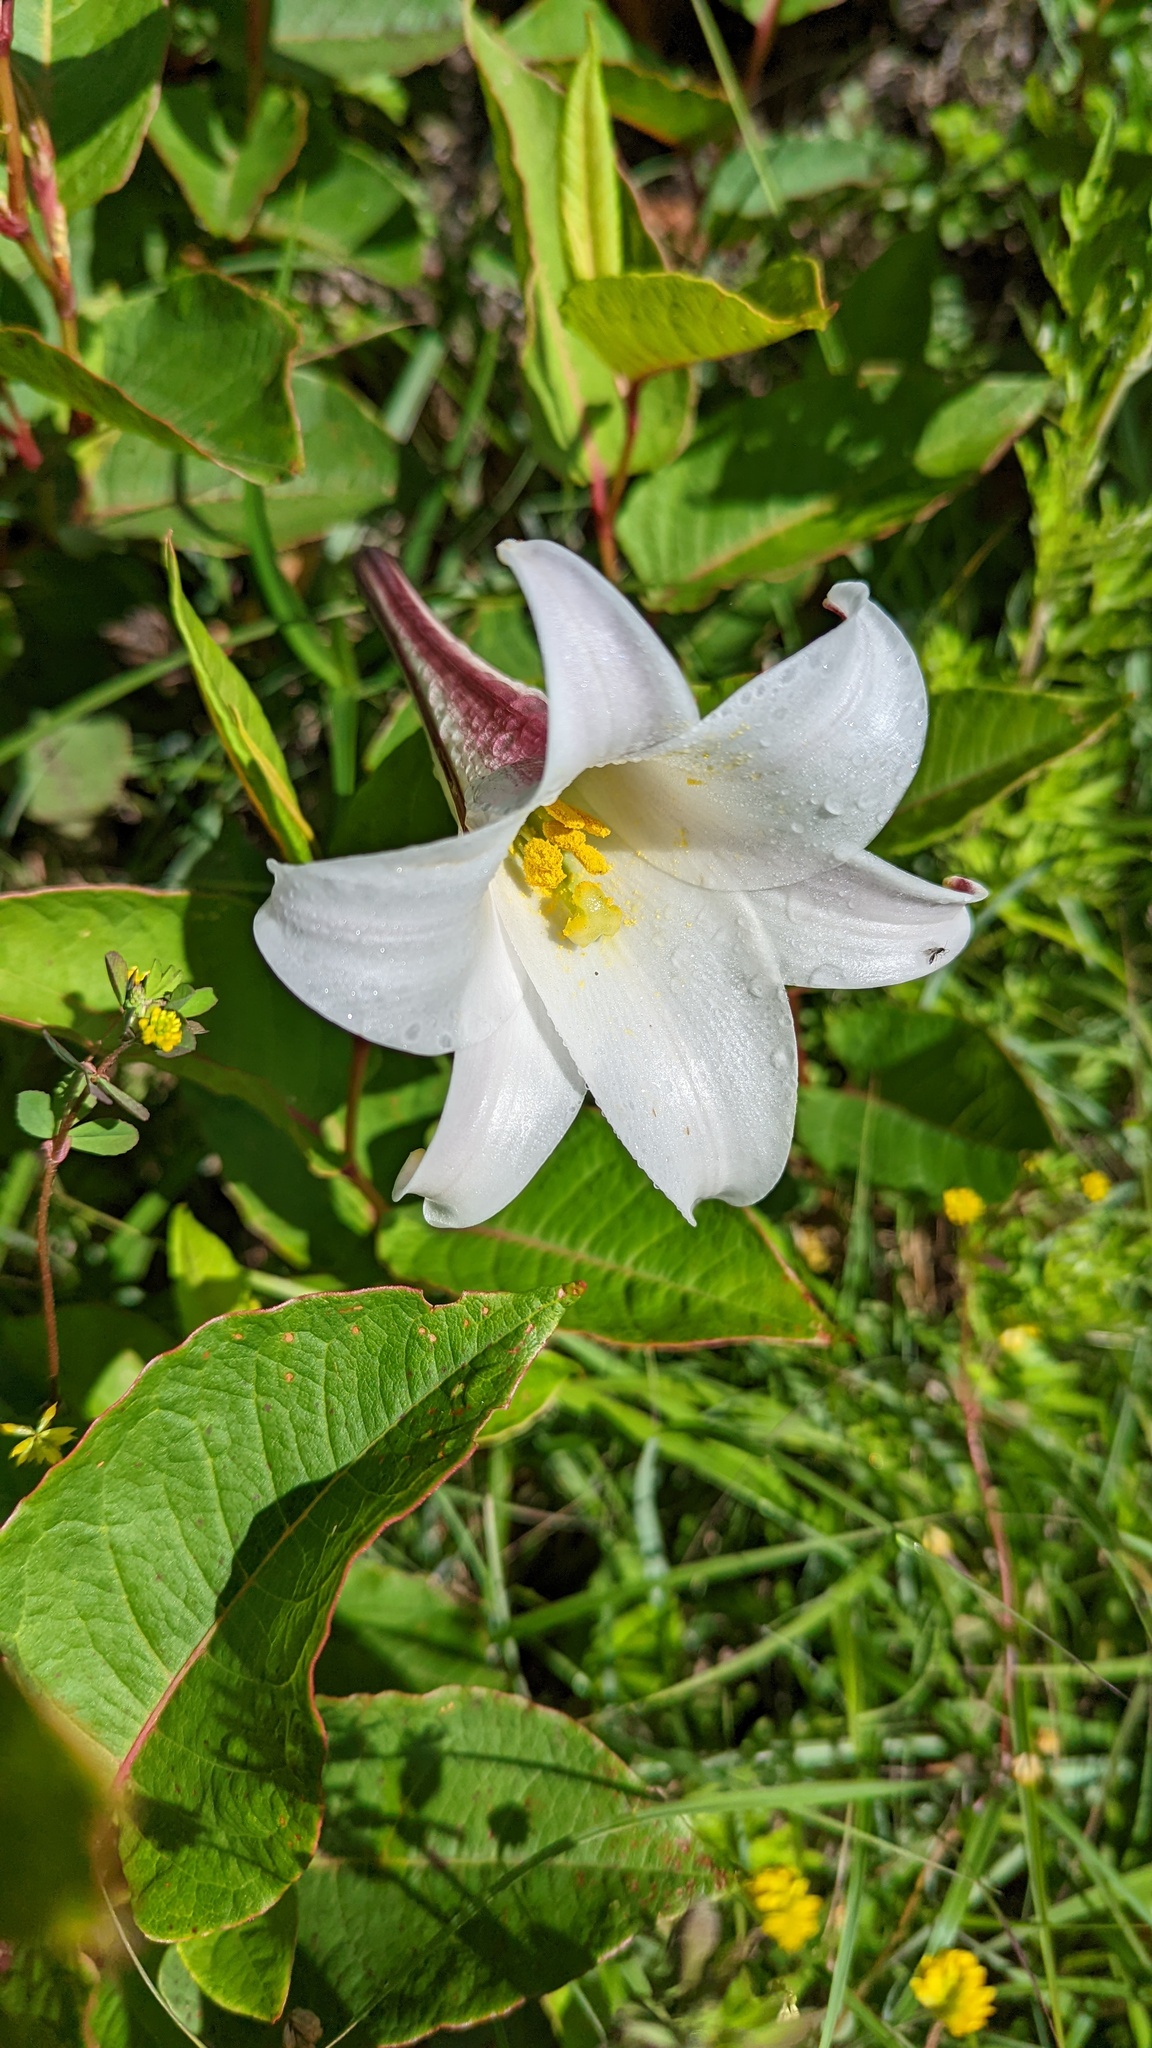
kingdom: Plantae
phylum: Tracheophyta
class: Liliopsida
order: Liliales
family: Liliaceae
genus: Lilium
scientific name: Lilium formosanum
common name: Formosa lily
